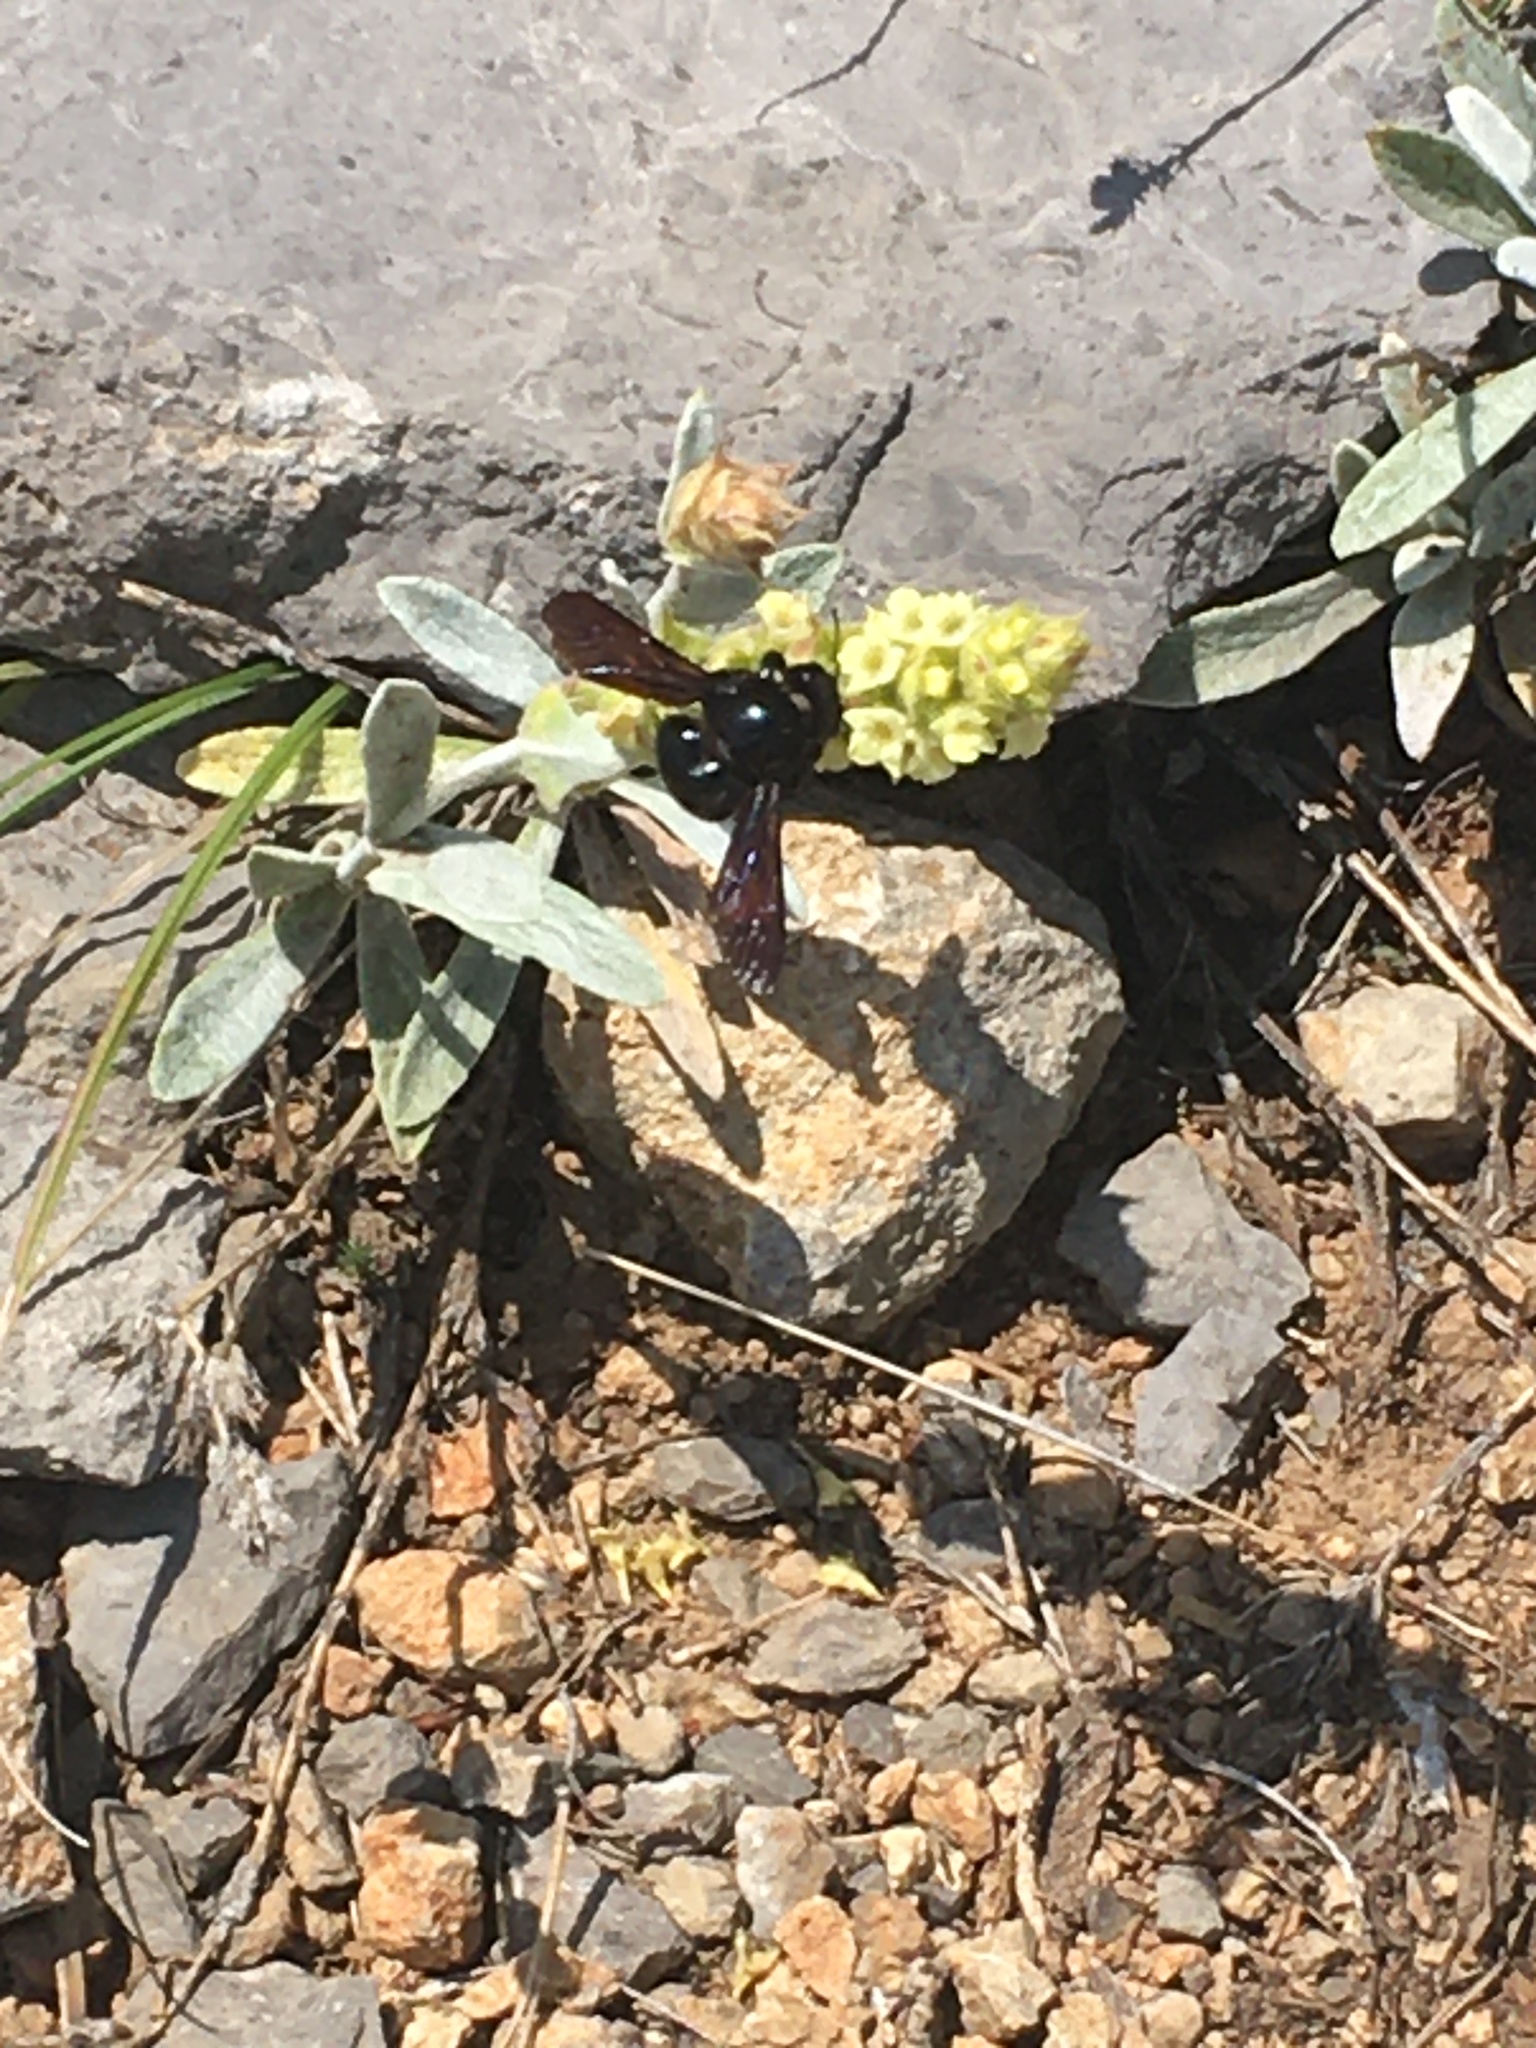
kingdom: Animalia
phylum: Arthropoda
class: Insecta
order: Hymenoptera
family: Apidae
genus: Xylocopa
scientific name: Xylocopa
